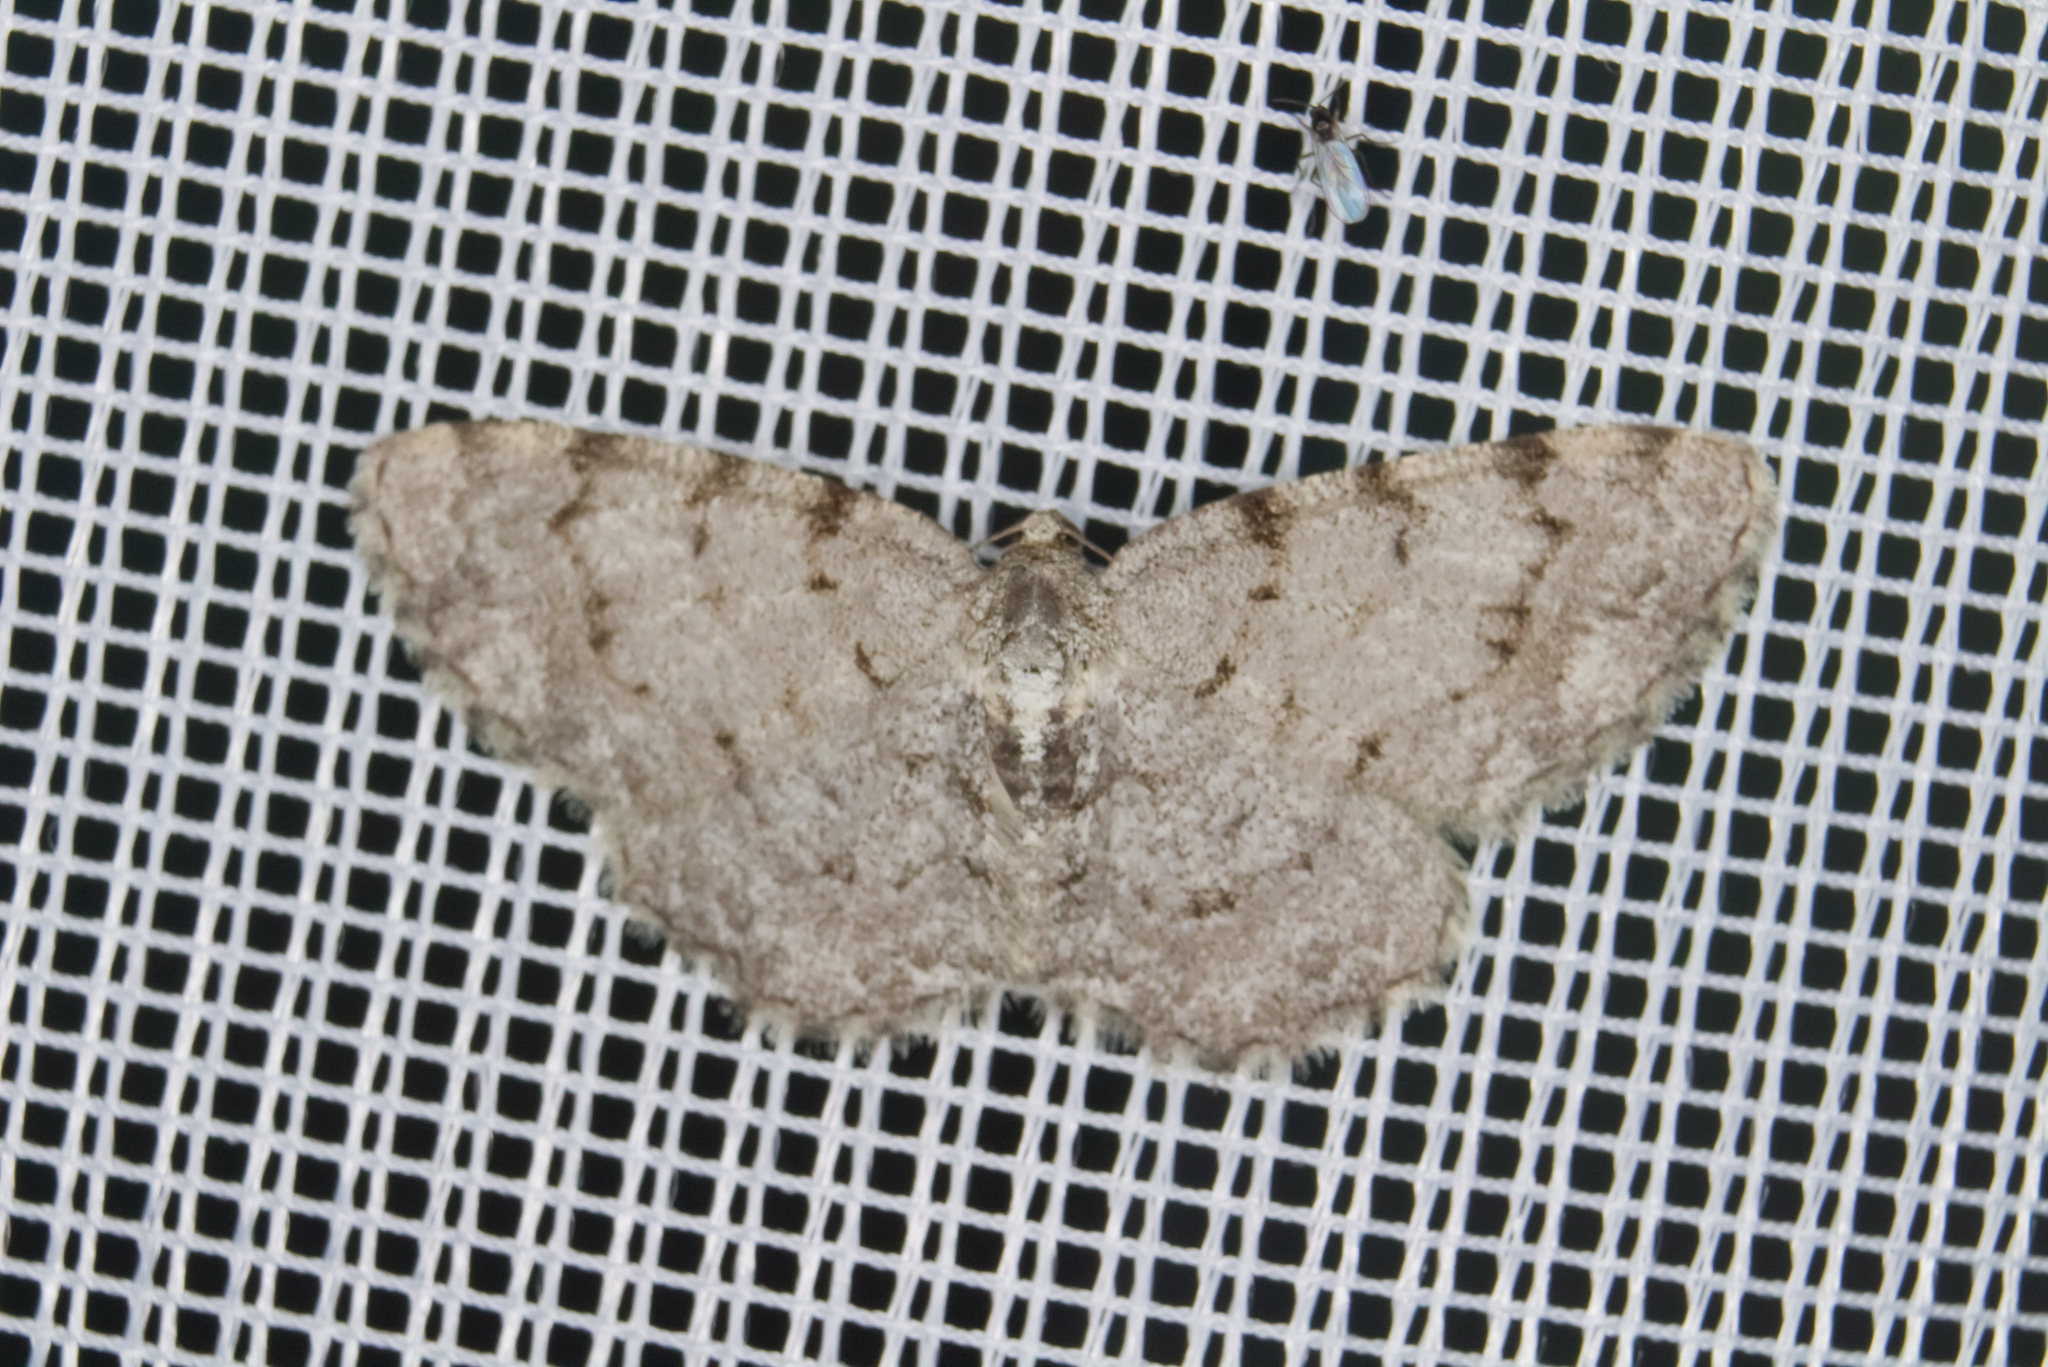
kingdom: Animalia
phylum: Arthropoda
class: Insecta
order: Lepidoptera
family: Geometridae
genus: Aethalura
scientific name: Aethalura punctulata
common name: Grey birch
